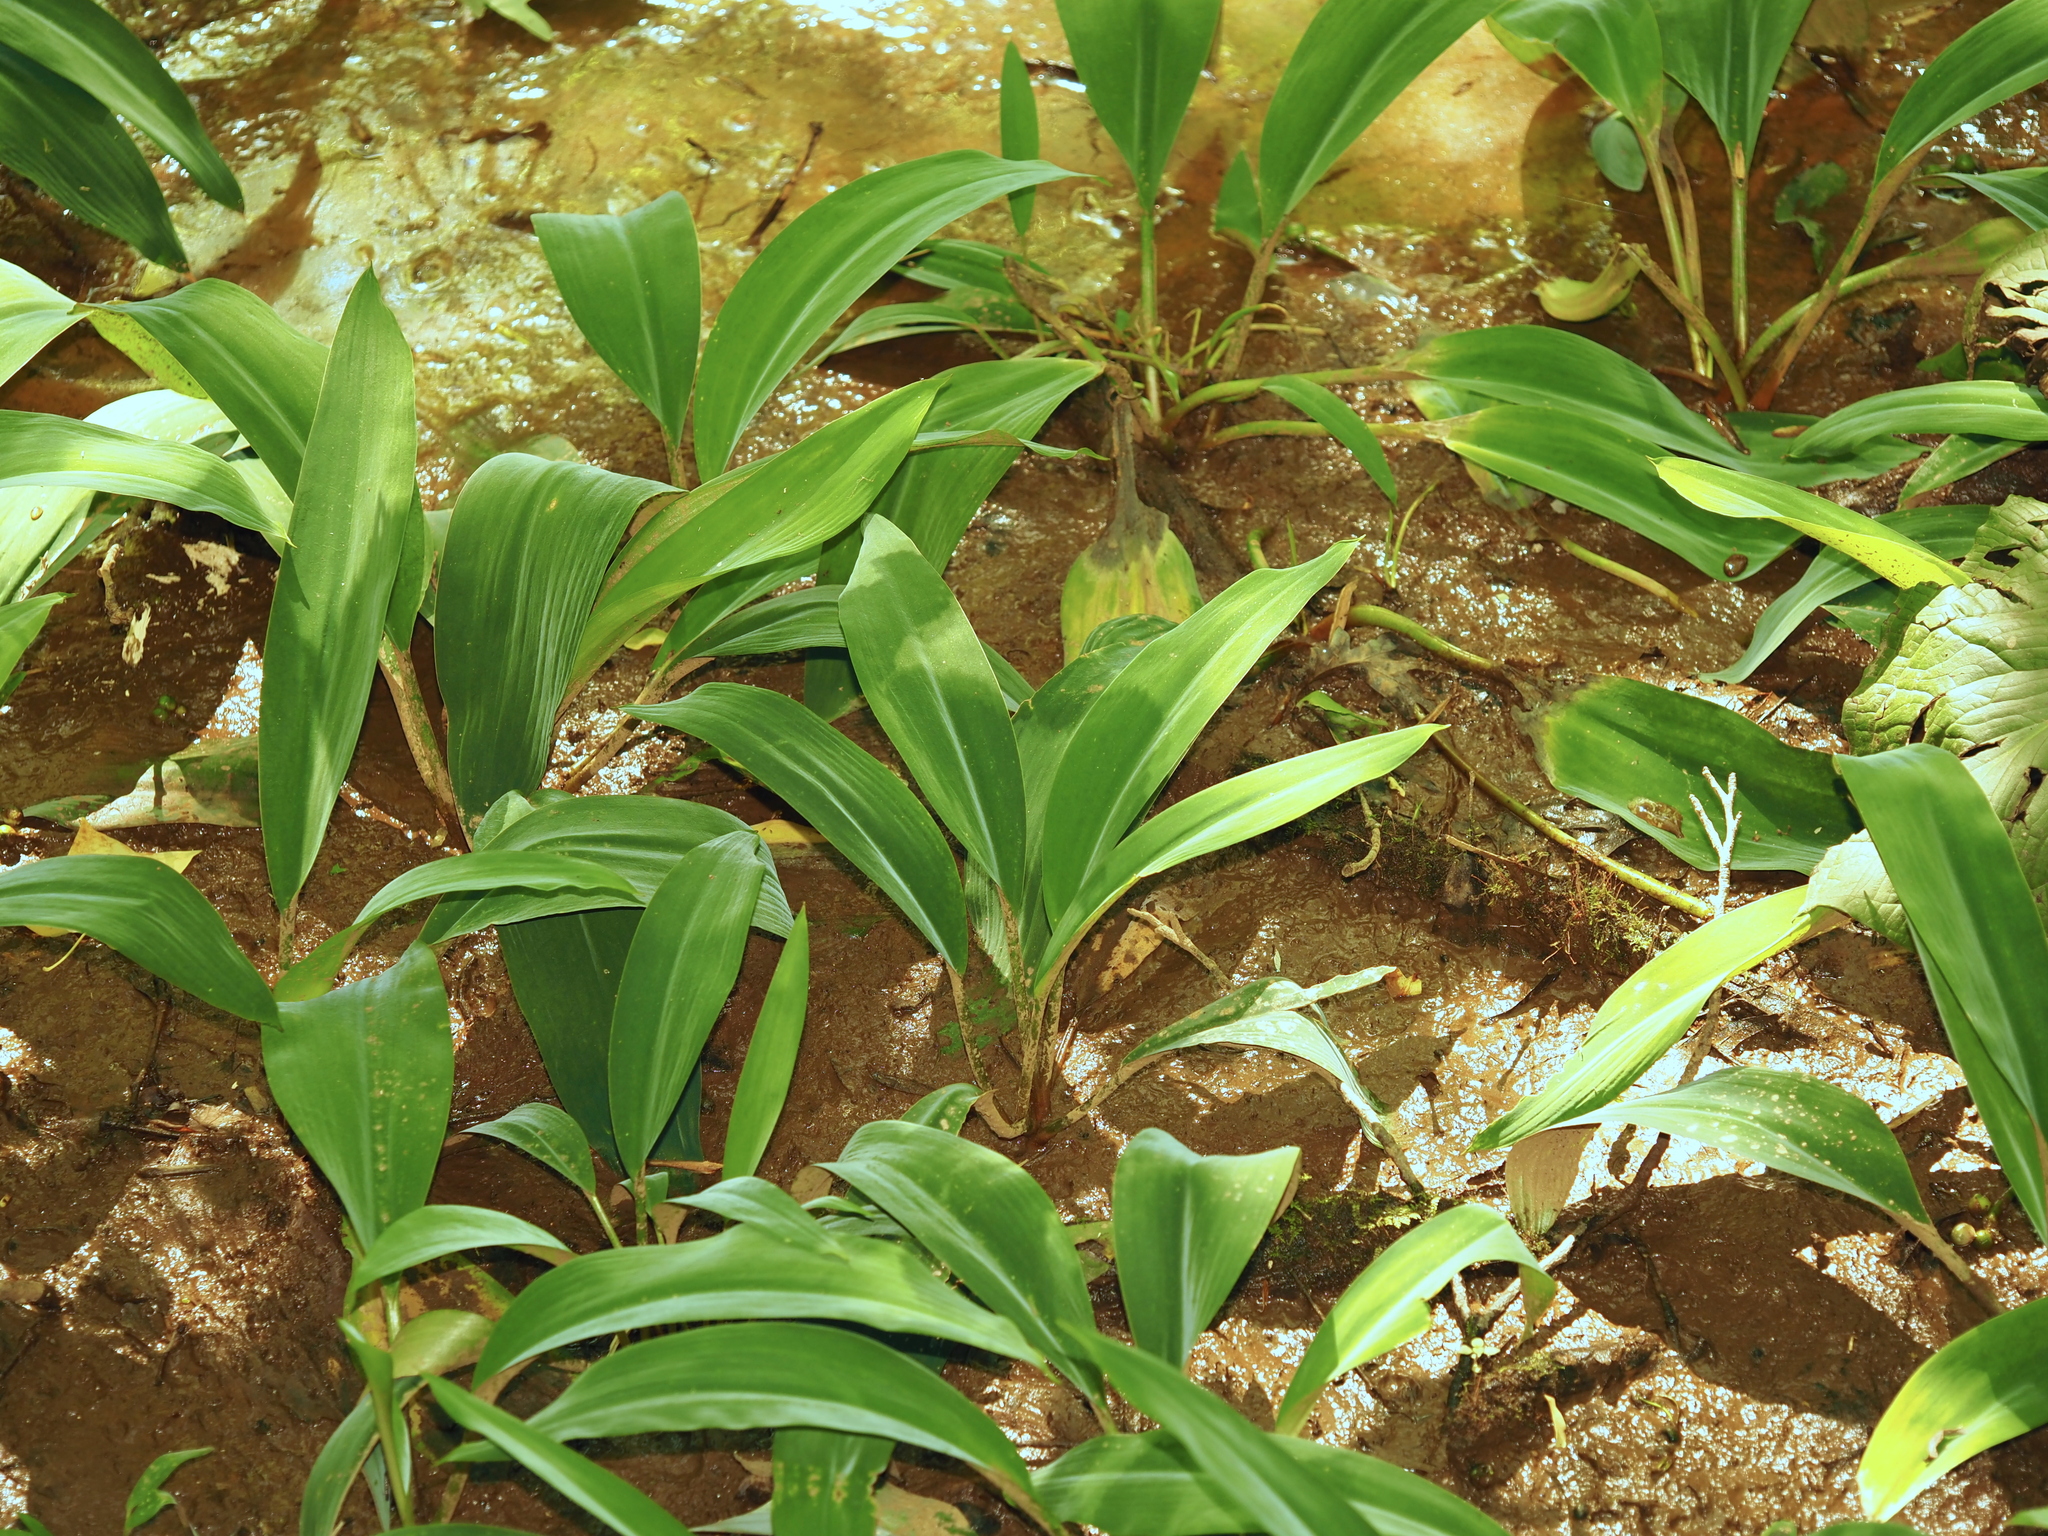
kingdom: Plantae
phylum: Tracheophyta
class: Liliopsida
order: Alismatales
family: Araceae
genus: Orontium
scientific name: Orontium aquaticum
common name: Golden-club
